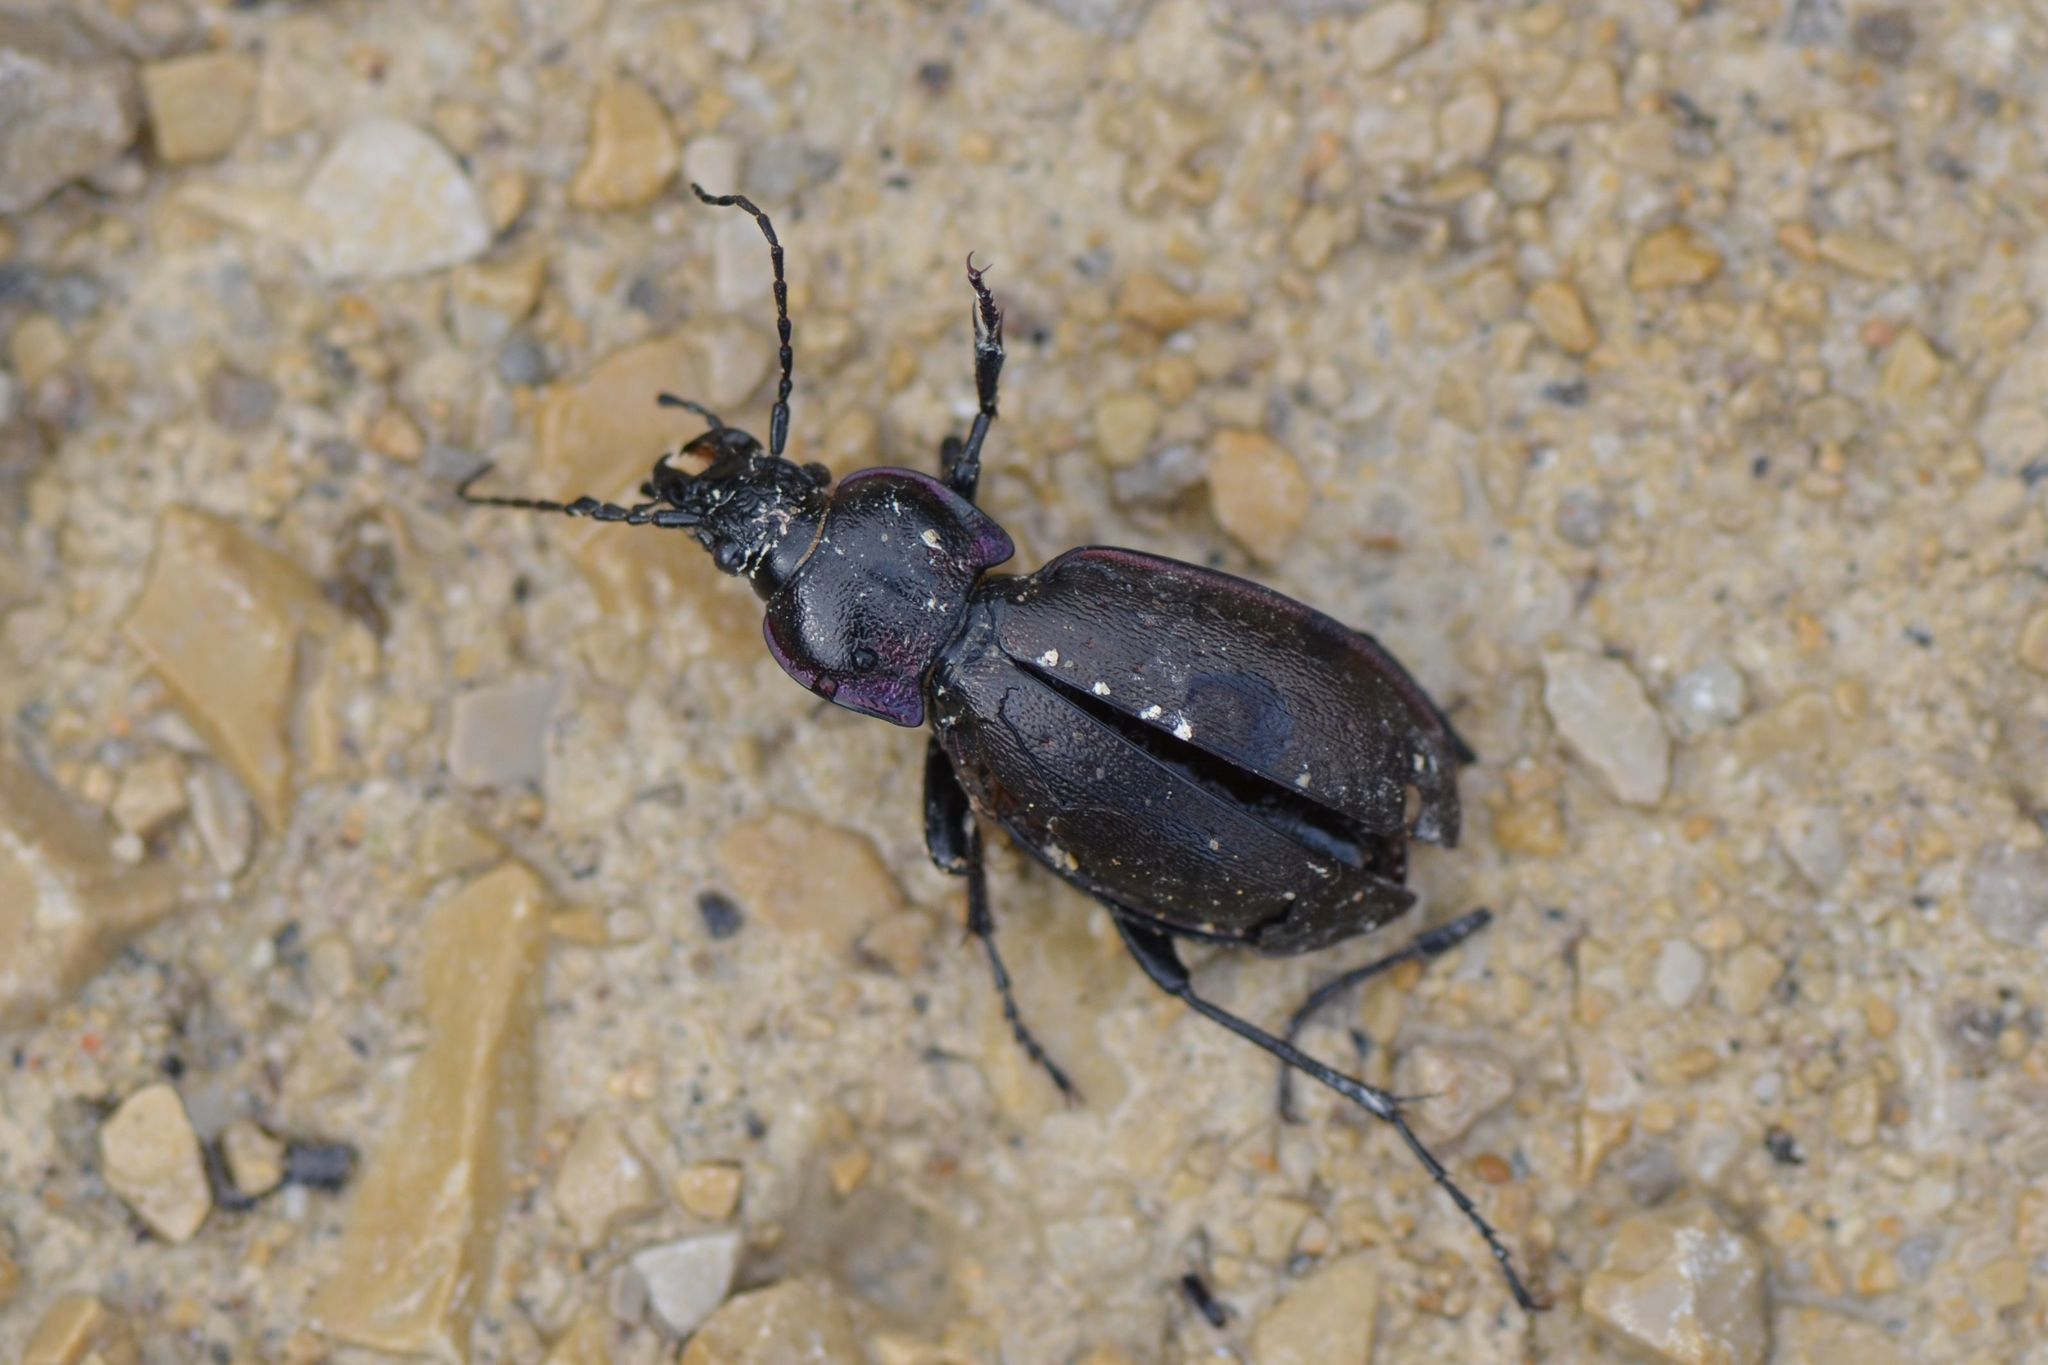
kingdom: Animalia
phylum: Arthropoda
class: Insecta
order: Coleoptera
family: Carabidae
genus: Carabus
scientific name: Carabus nemoralis
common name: European ground beetle
